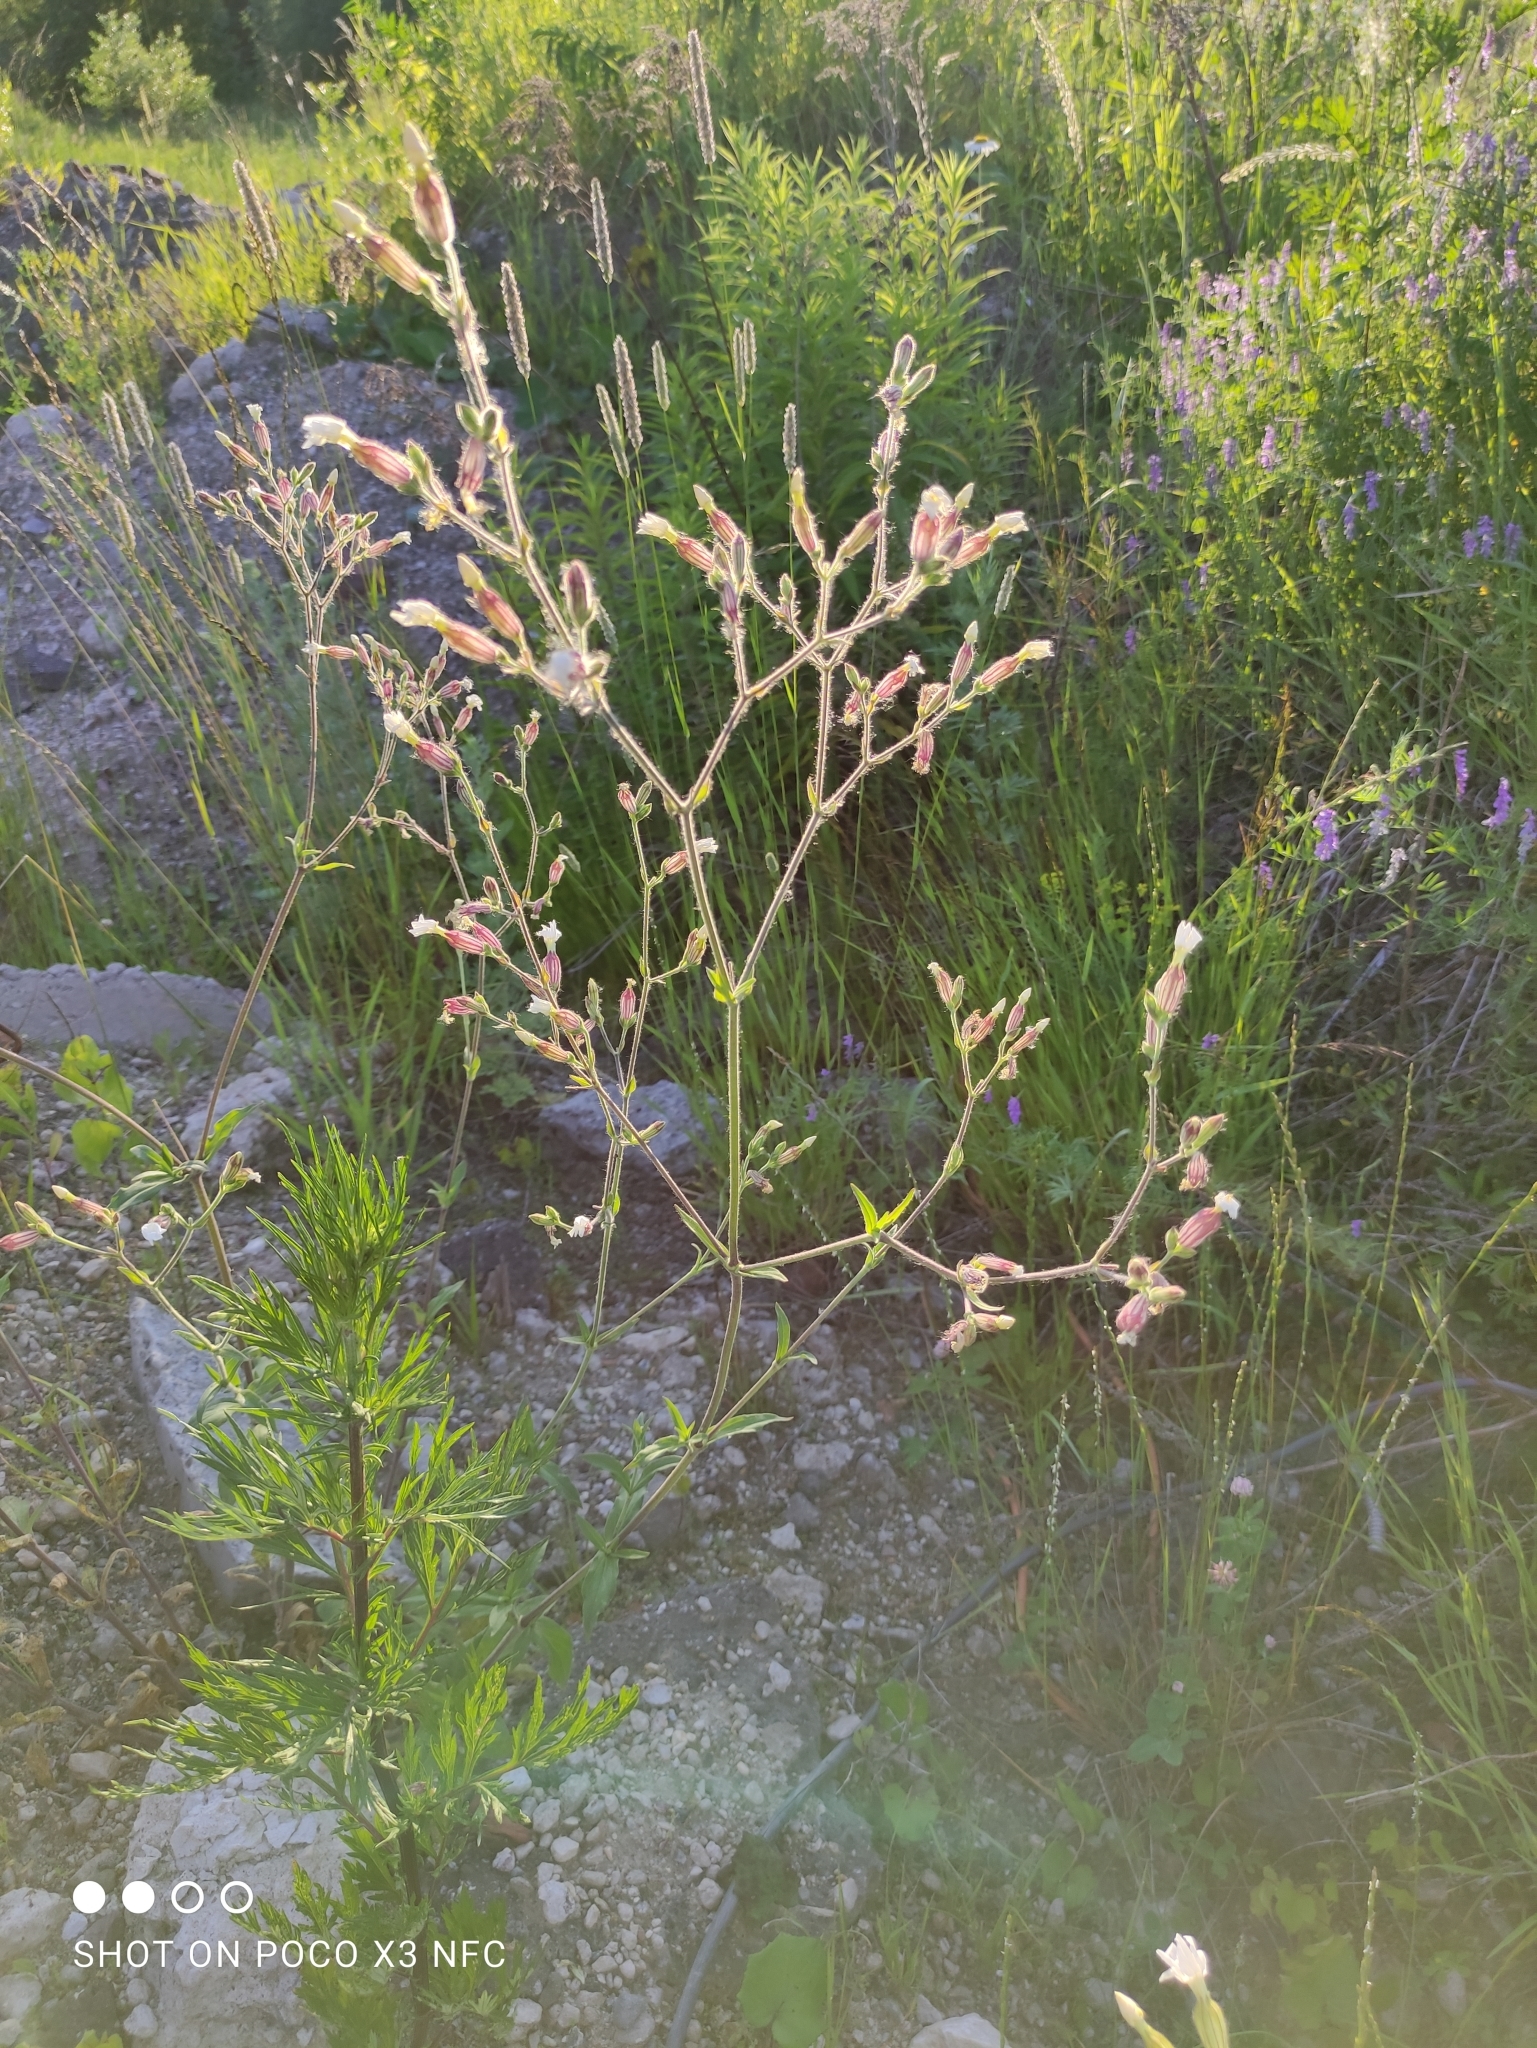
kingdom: Plantae
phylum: Tracheophyta
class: Magnoliopsida
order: Caryophyllales
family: Caryophyllaceae
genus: Silene
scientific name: Silene latifolia
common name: White campion
